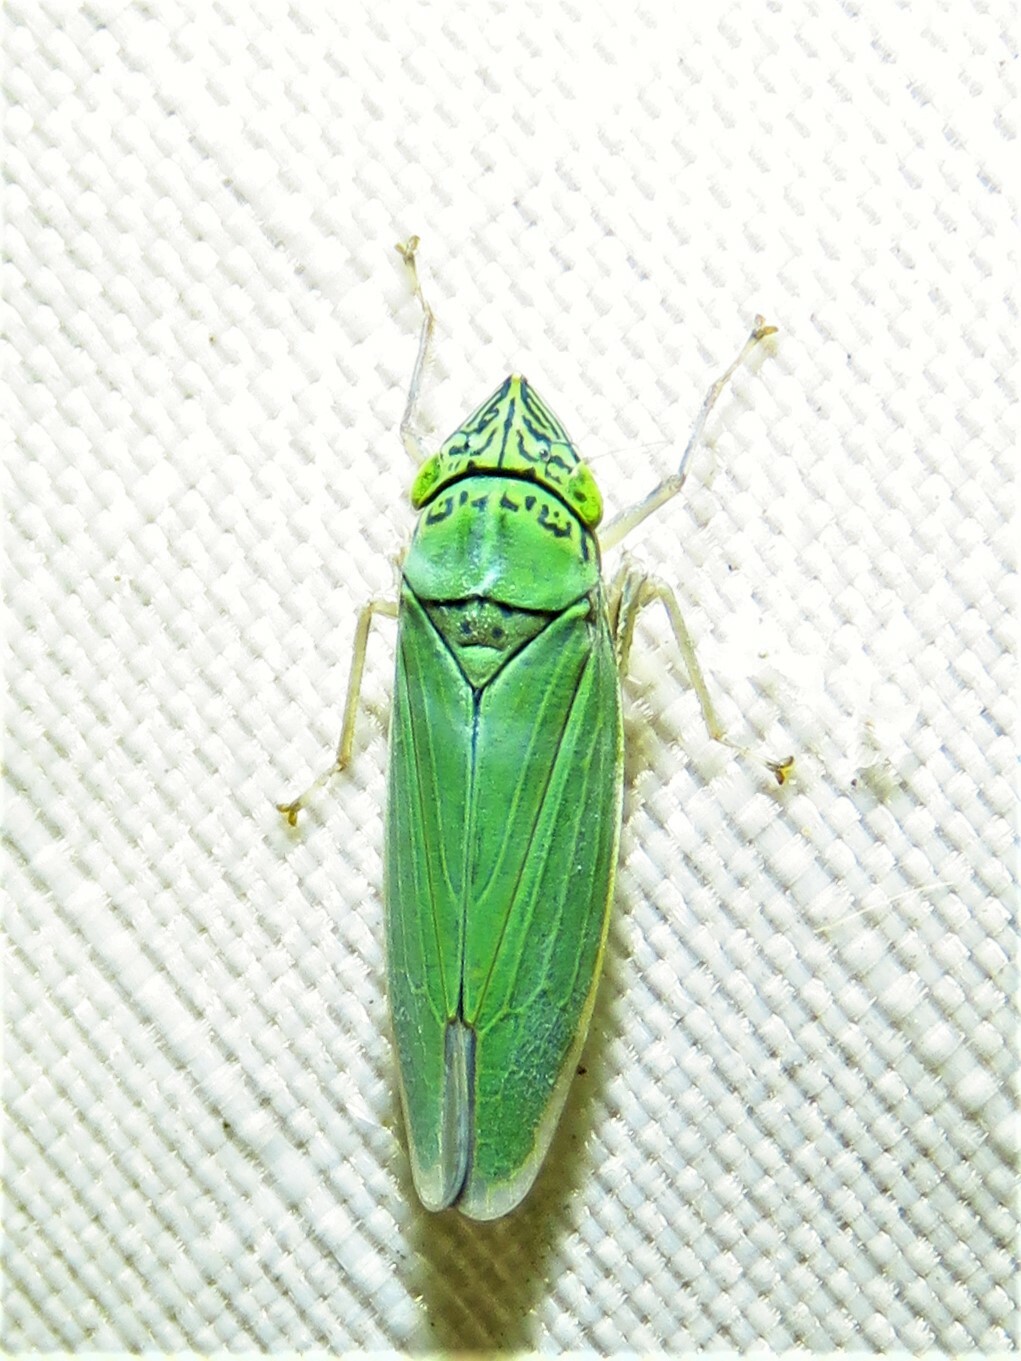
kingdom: Animalia
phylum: Arthropoda
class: Insecta
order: Hemiptera
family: Cicadellidae
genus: Draeculacephala
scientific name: Draeculacephala inscripta
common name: Leafhopper
